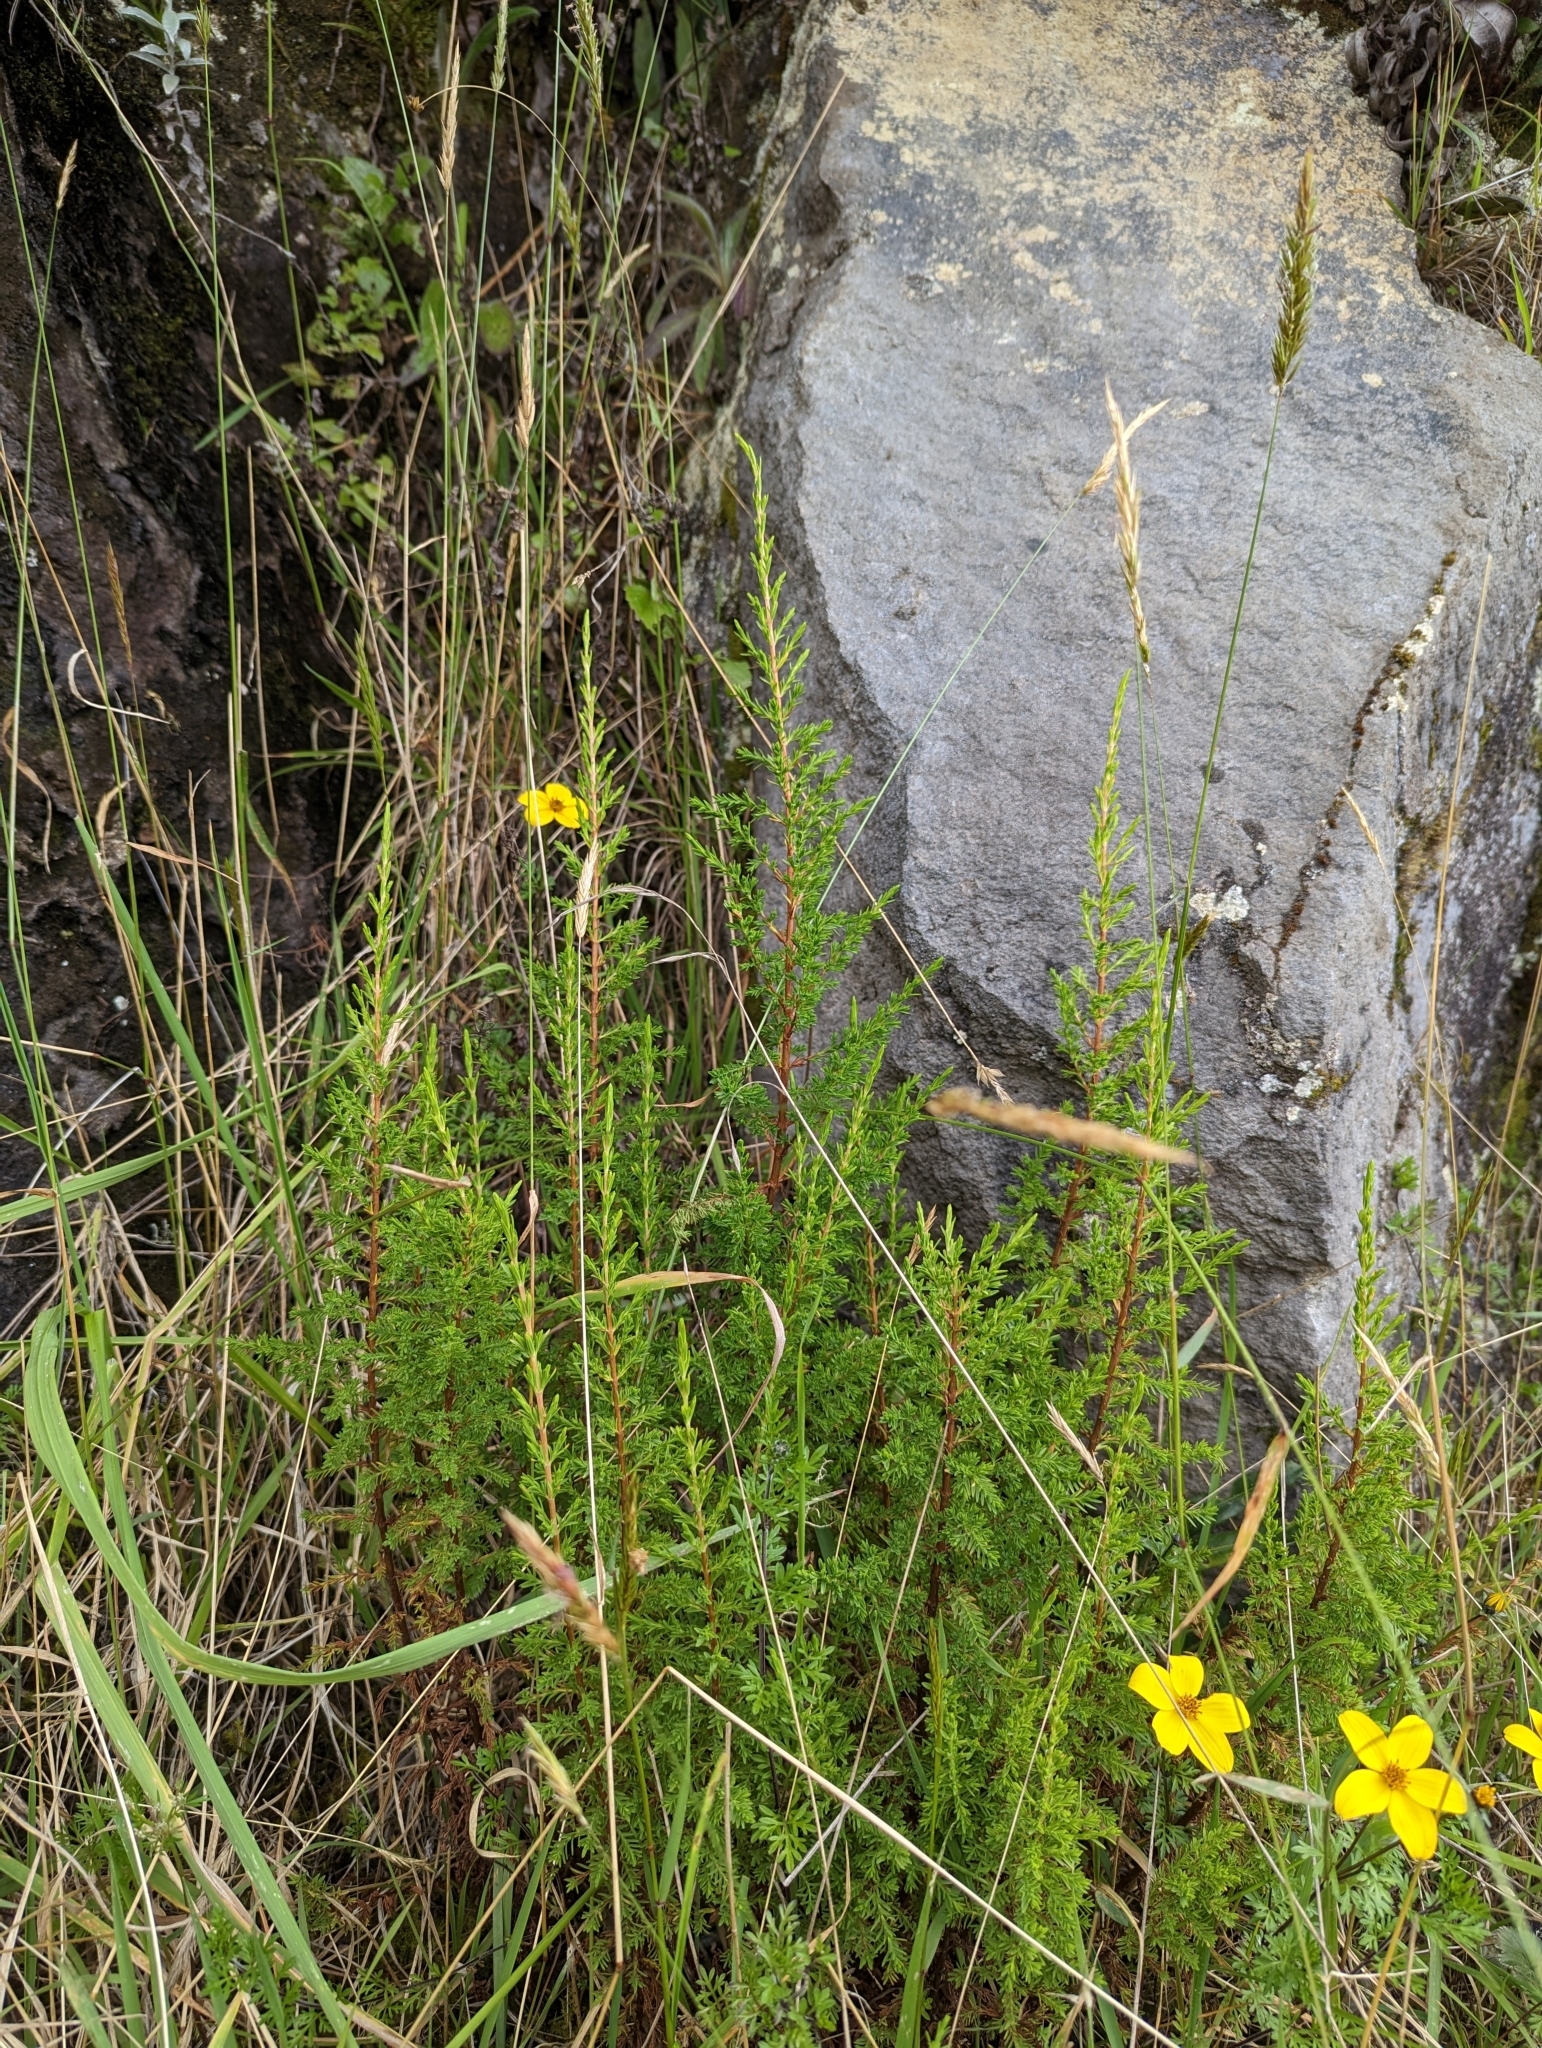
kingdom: Plantae
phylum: Tracheophyta
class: Magnoliopsida
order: Malpighiales
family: Hypericaceae
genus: Hypericum
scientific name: Hypericum laricifolium
